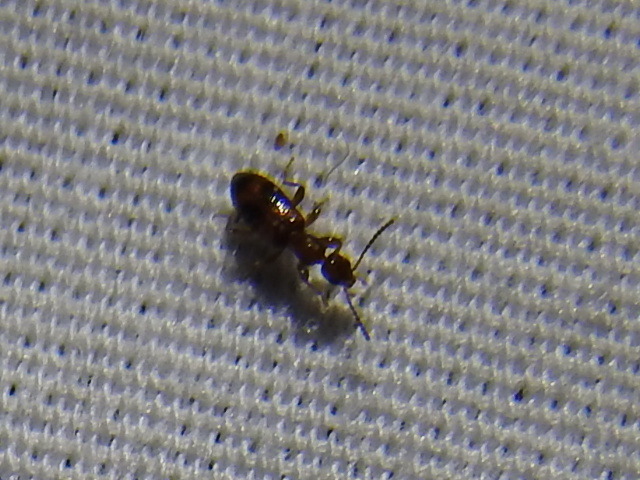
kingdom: Animalia
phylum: Arthropoda
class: Insecta
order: Coleoptera
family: Anthicidae
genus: Vacusus
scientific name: Vacusus vicinus
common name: Antlike flower beetle
